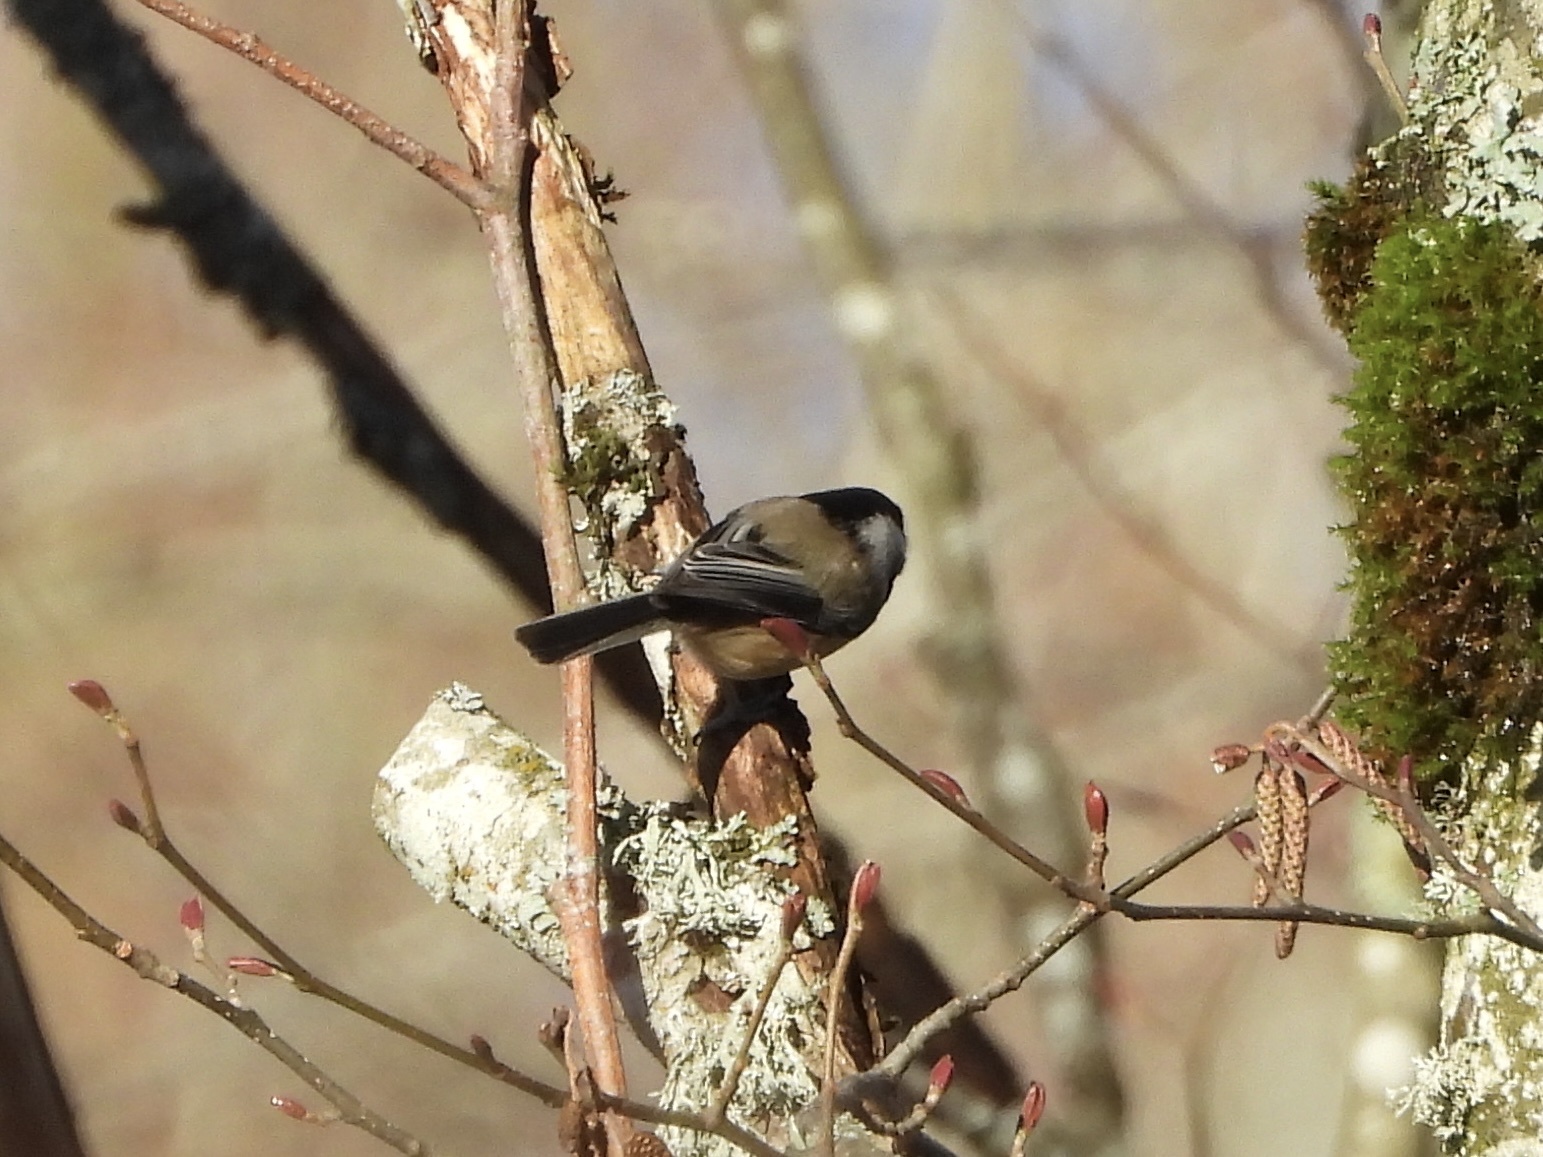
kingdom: Animalia
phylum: Chordata
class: Aves
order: Passeriformes
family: Paridae
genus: Poecile
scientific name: Poecile atricapillus
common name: Black-capped chickadee
